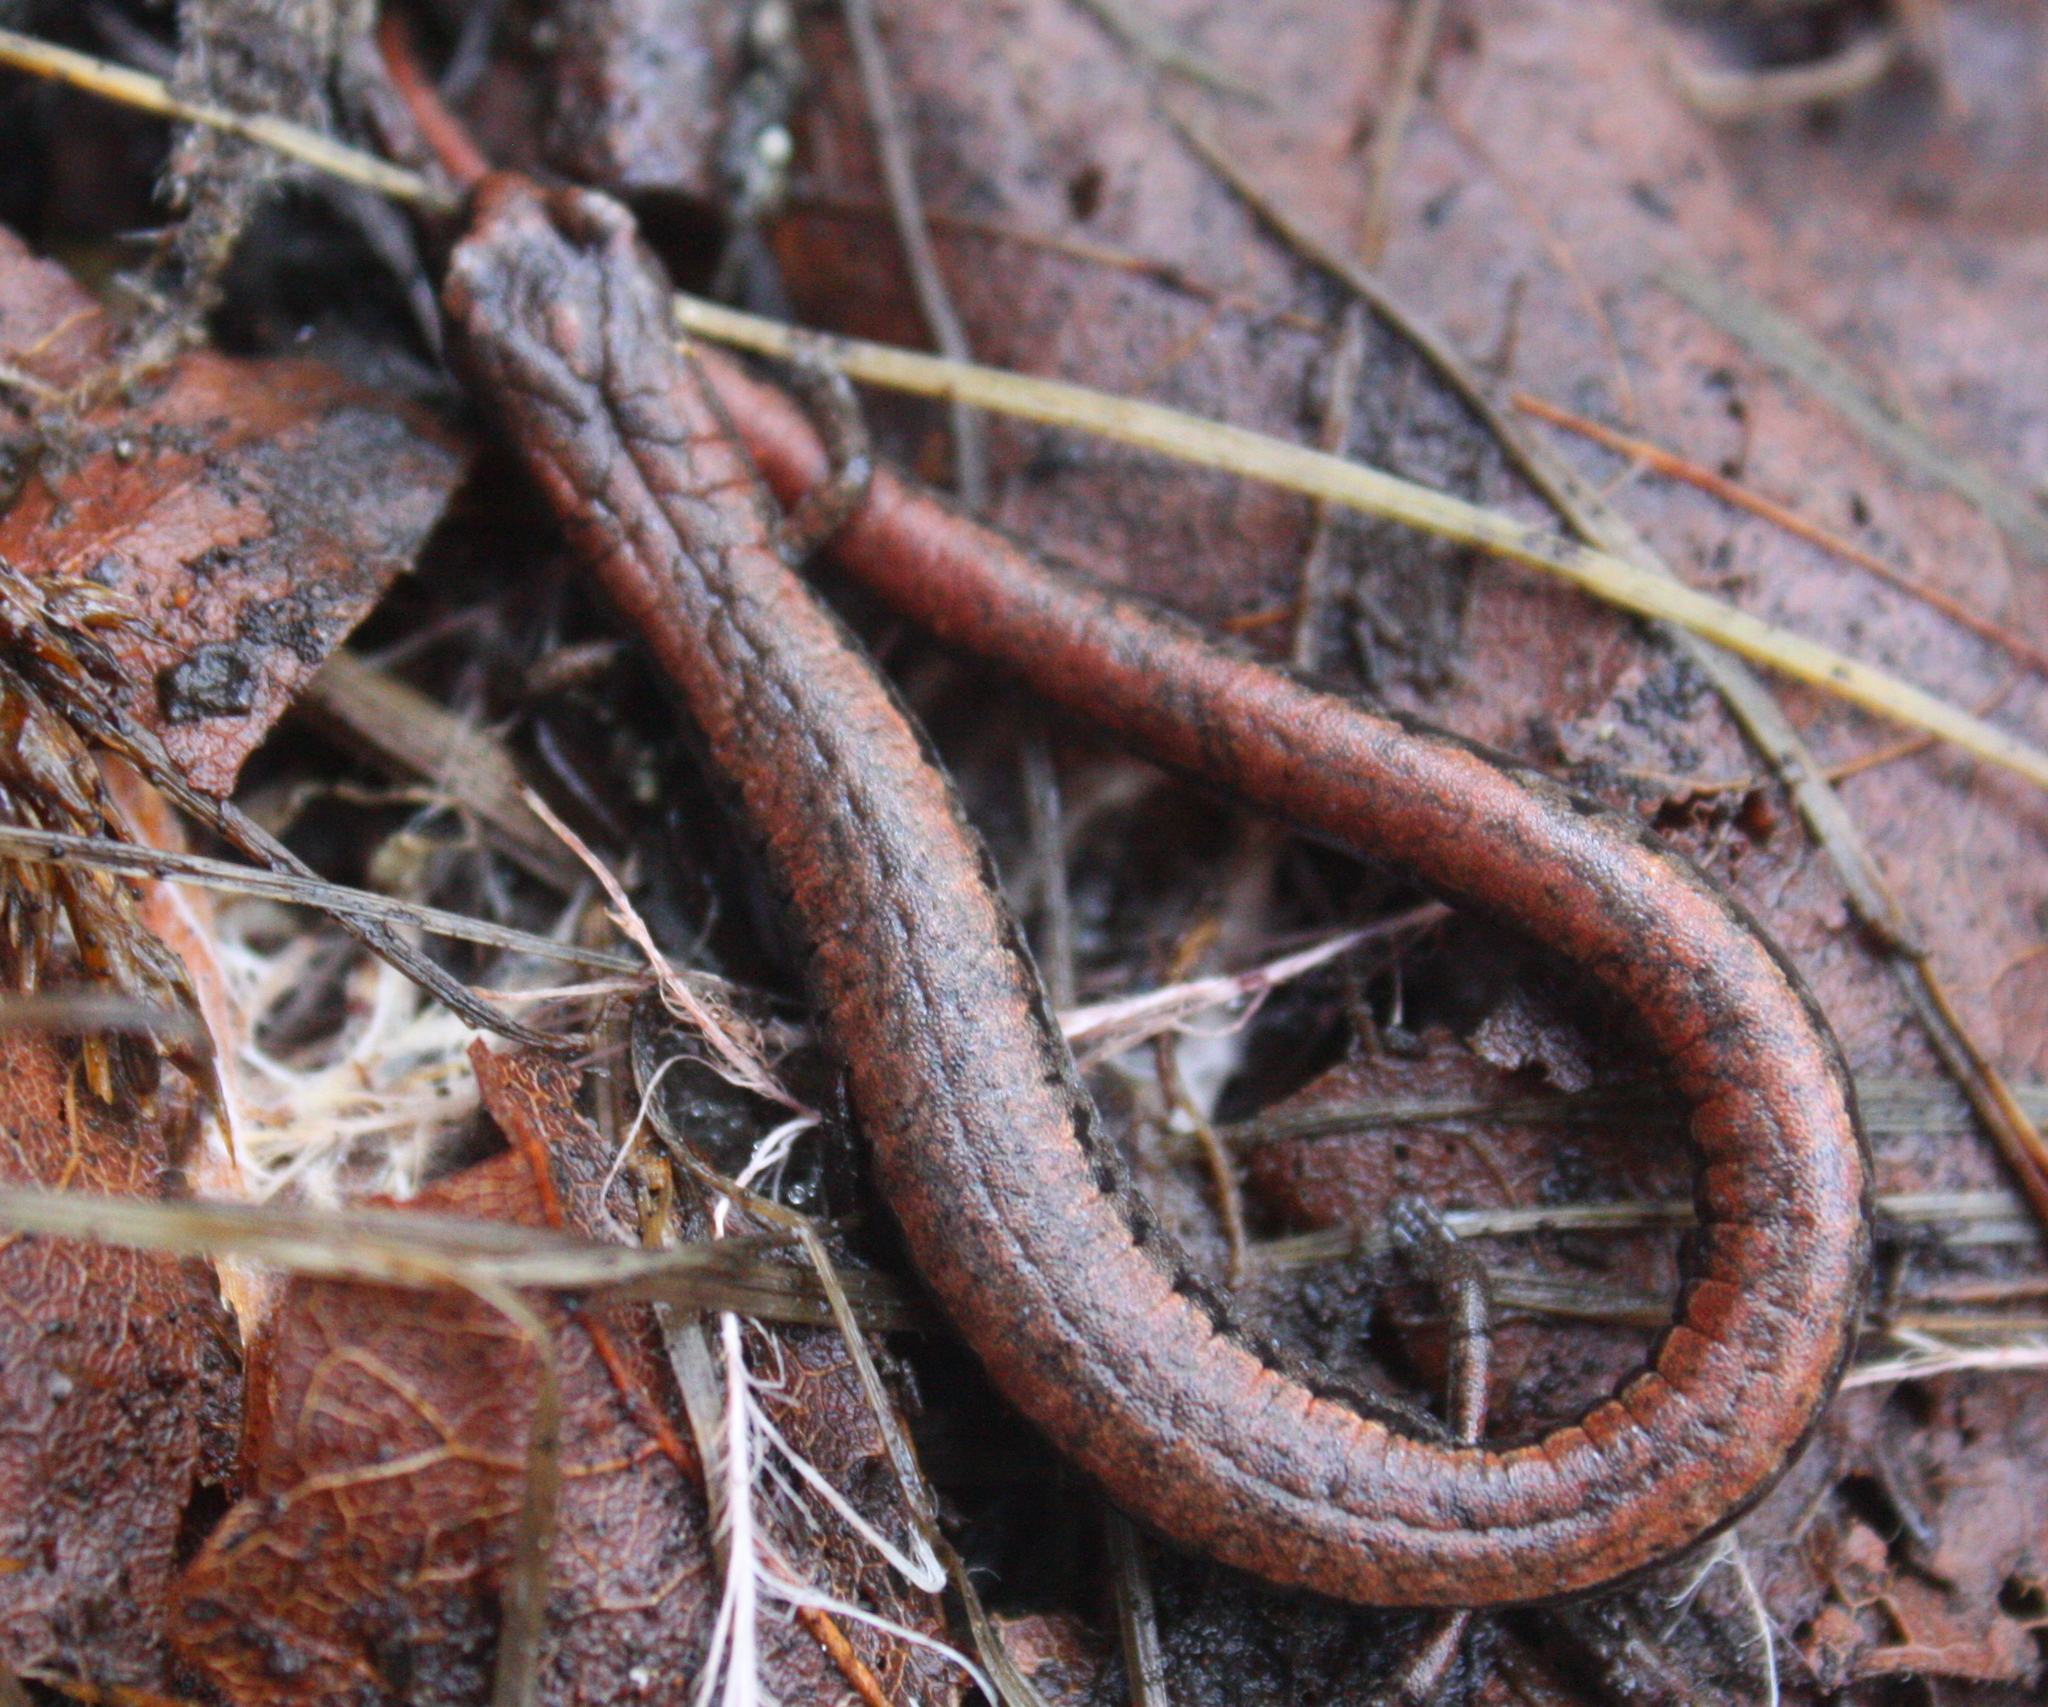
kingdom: Animalia
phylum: Chordata
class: Amphibia
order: Caudata
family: Plethodontidae
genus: Batrachoseps
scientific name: Batrachoseps attenuatus
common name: California slender salamander
